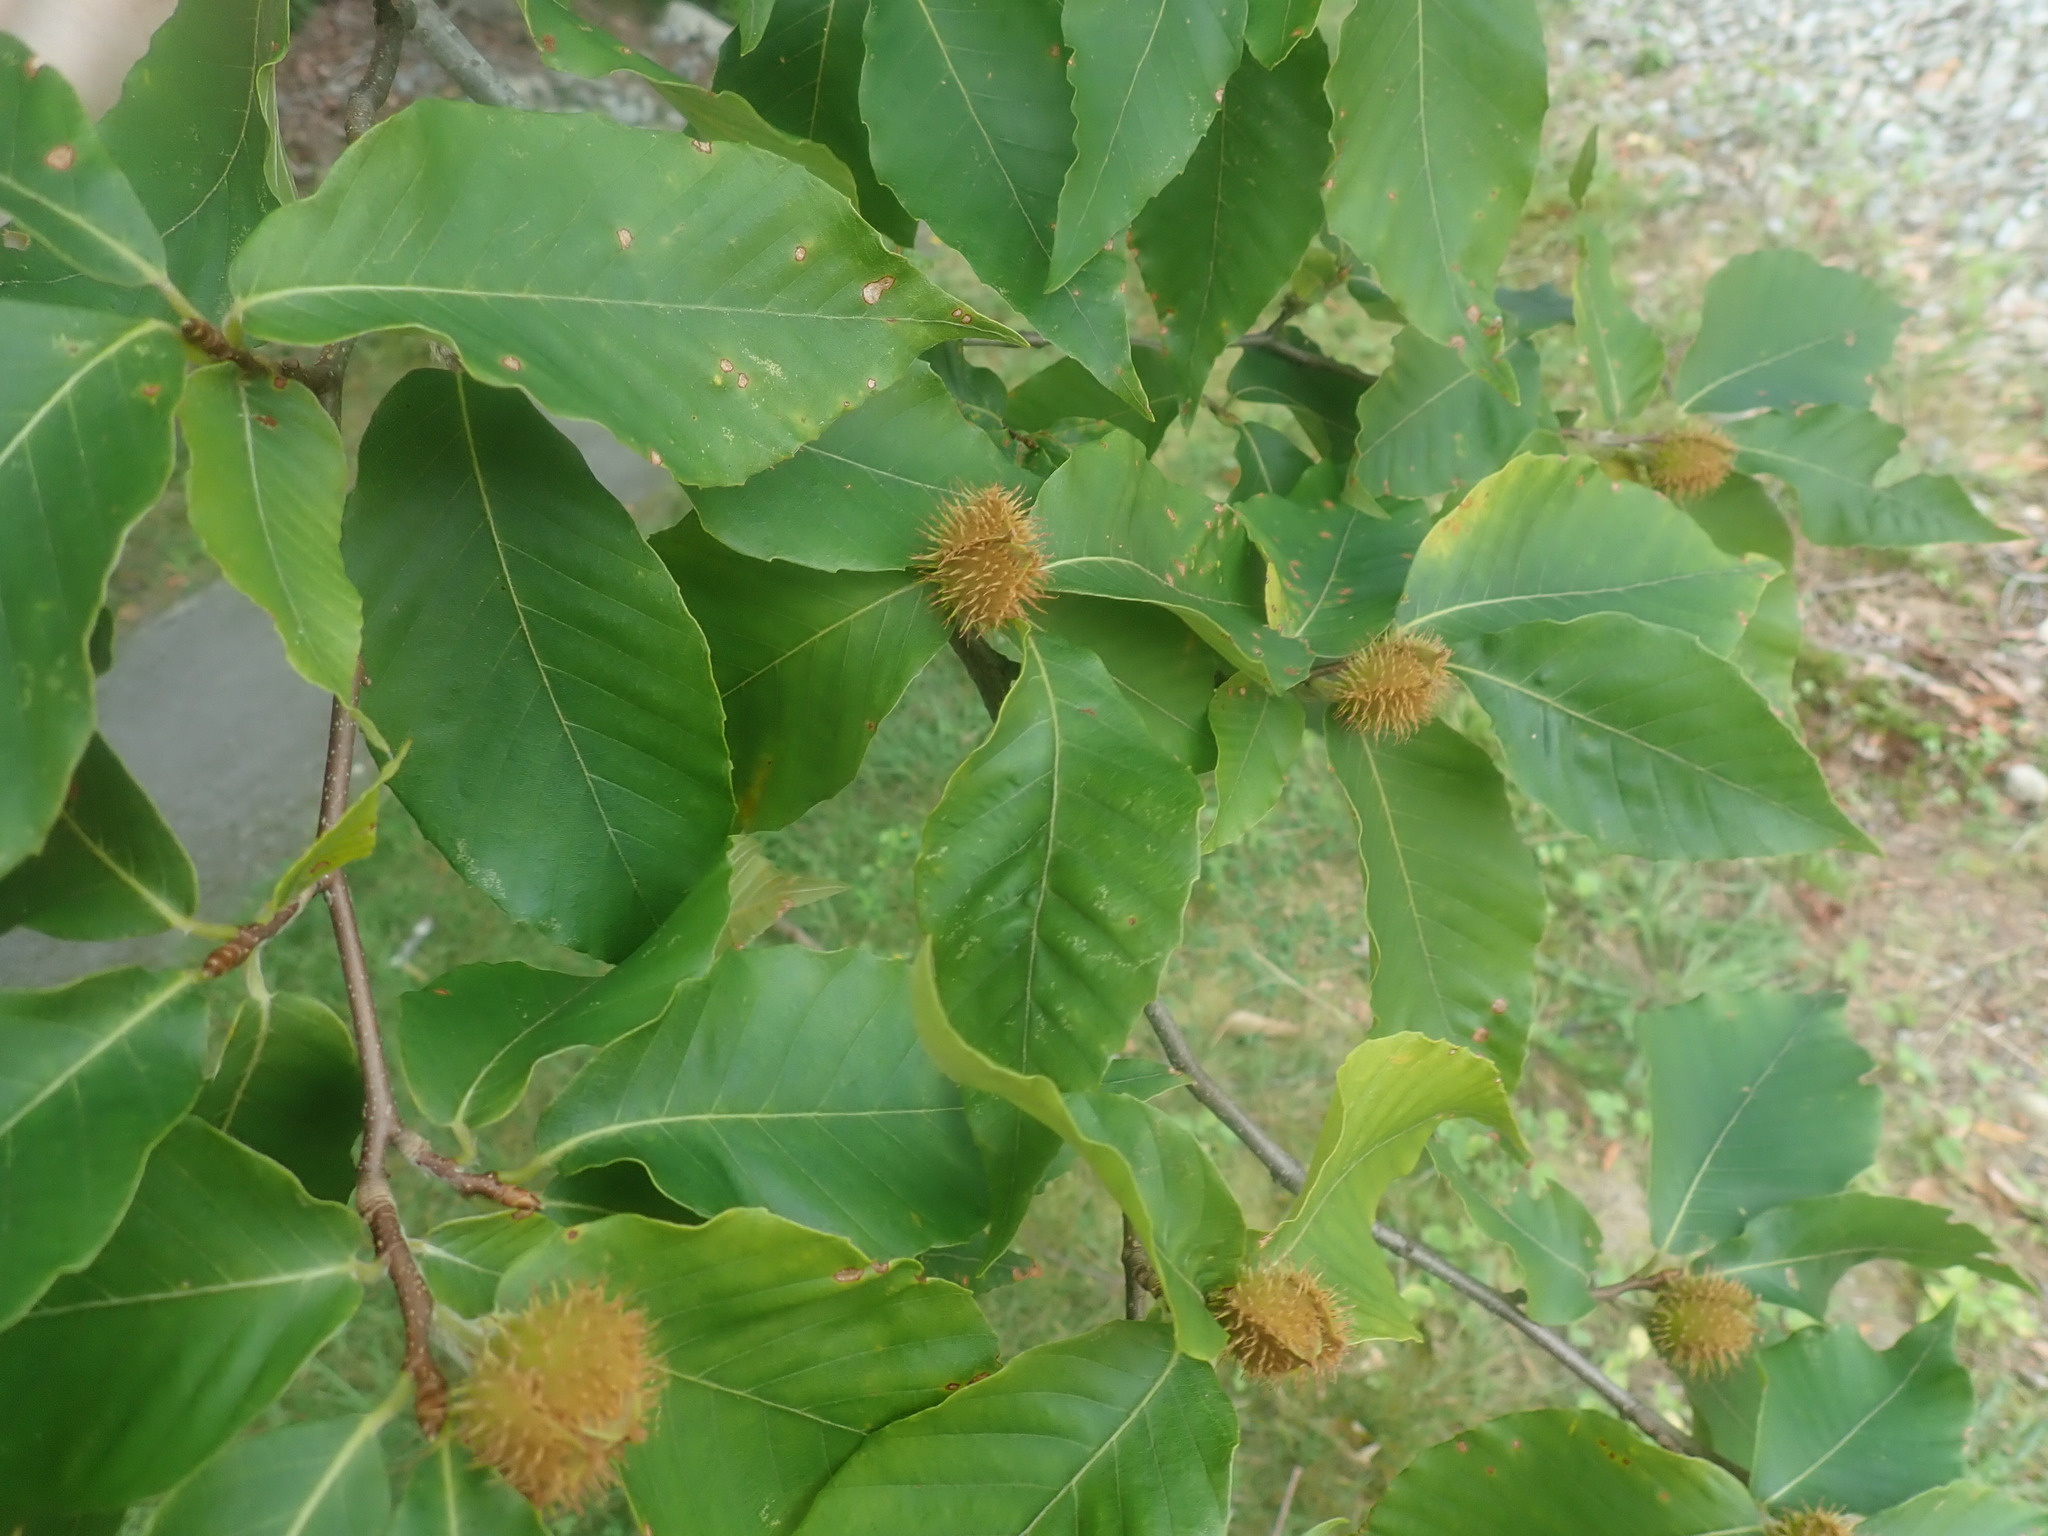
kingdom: Plantae
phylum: Tracheophyta
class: Magnoliopsida
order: Fagales
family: Fagaceae
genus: Fagus
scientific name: Fagus grandifolia
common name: American beech
